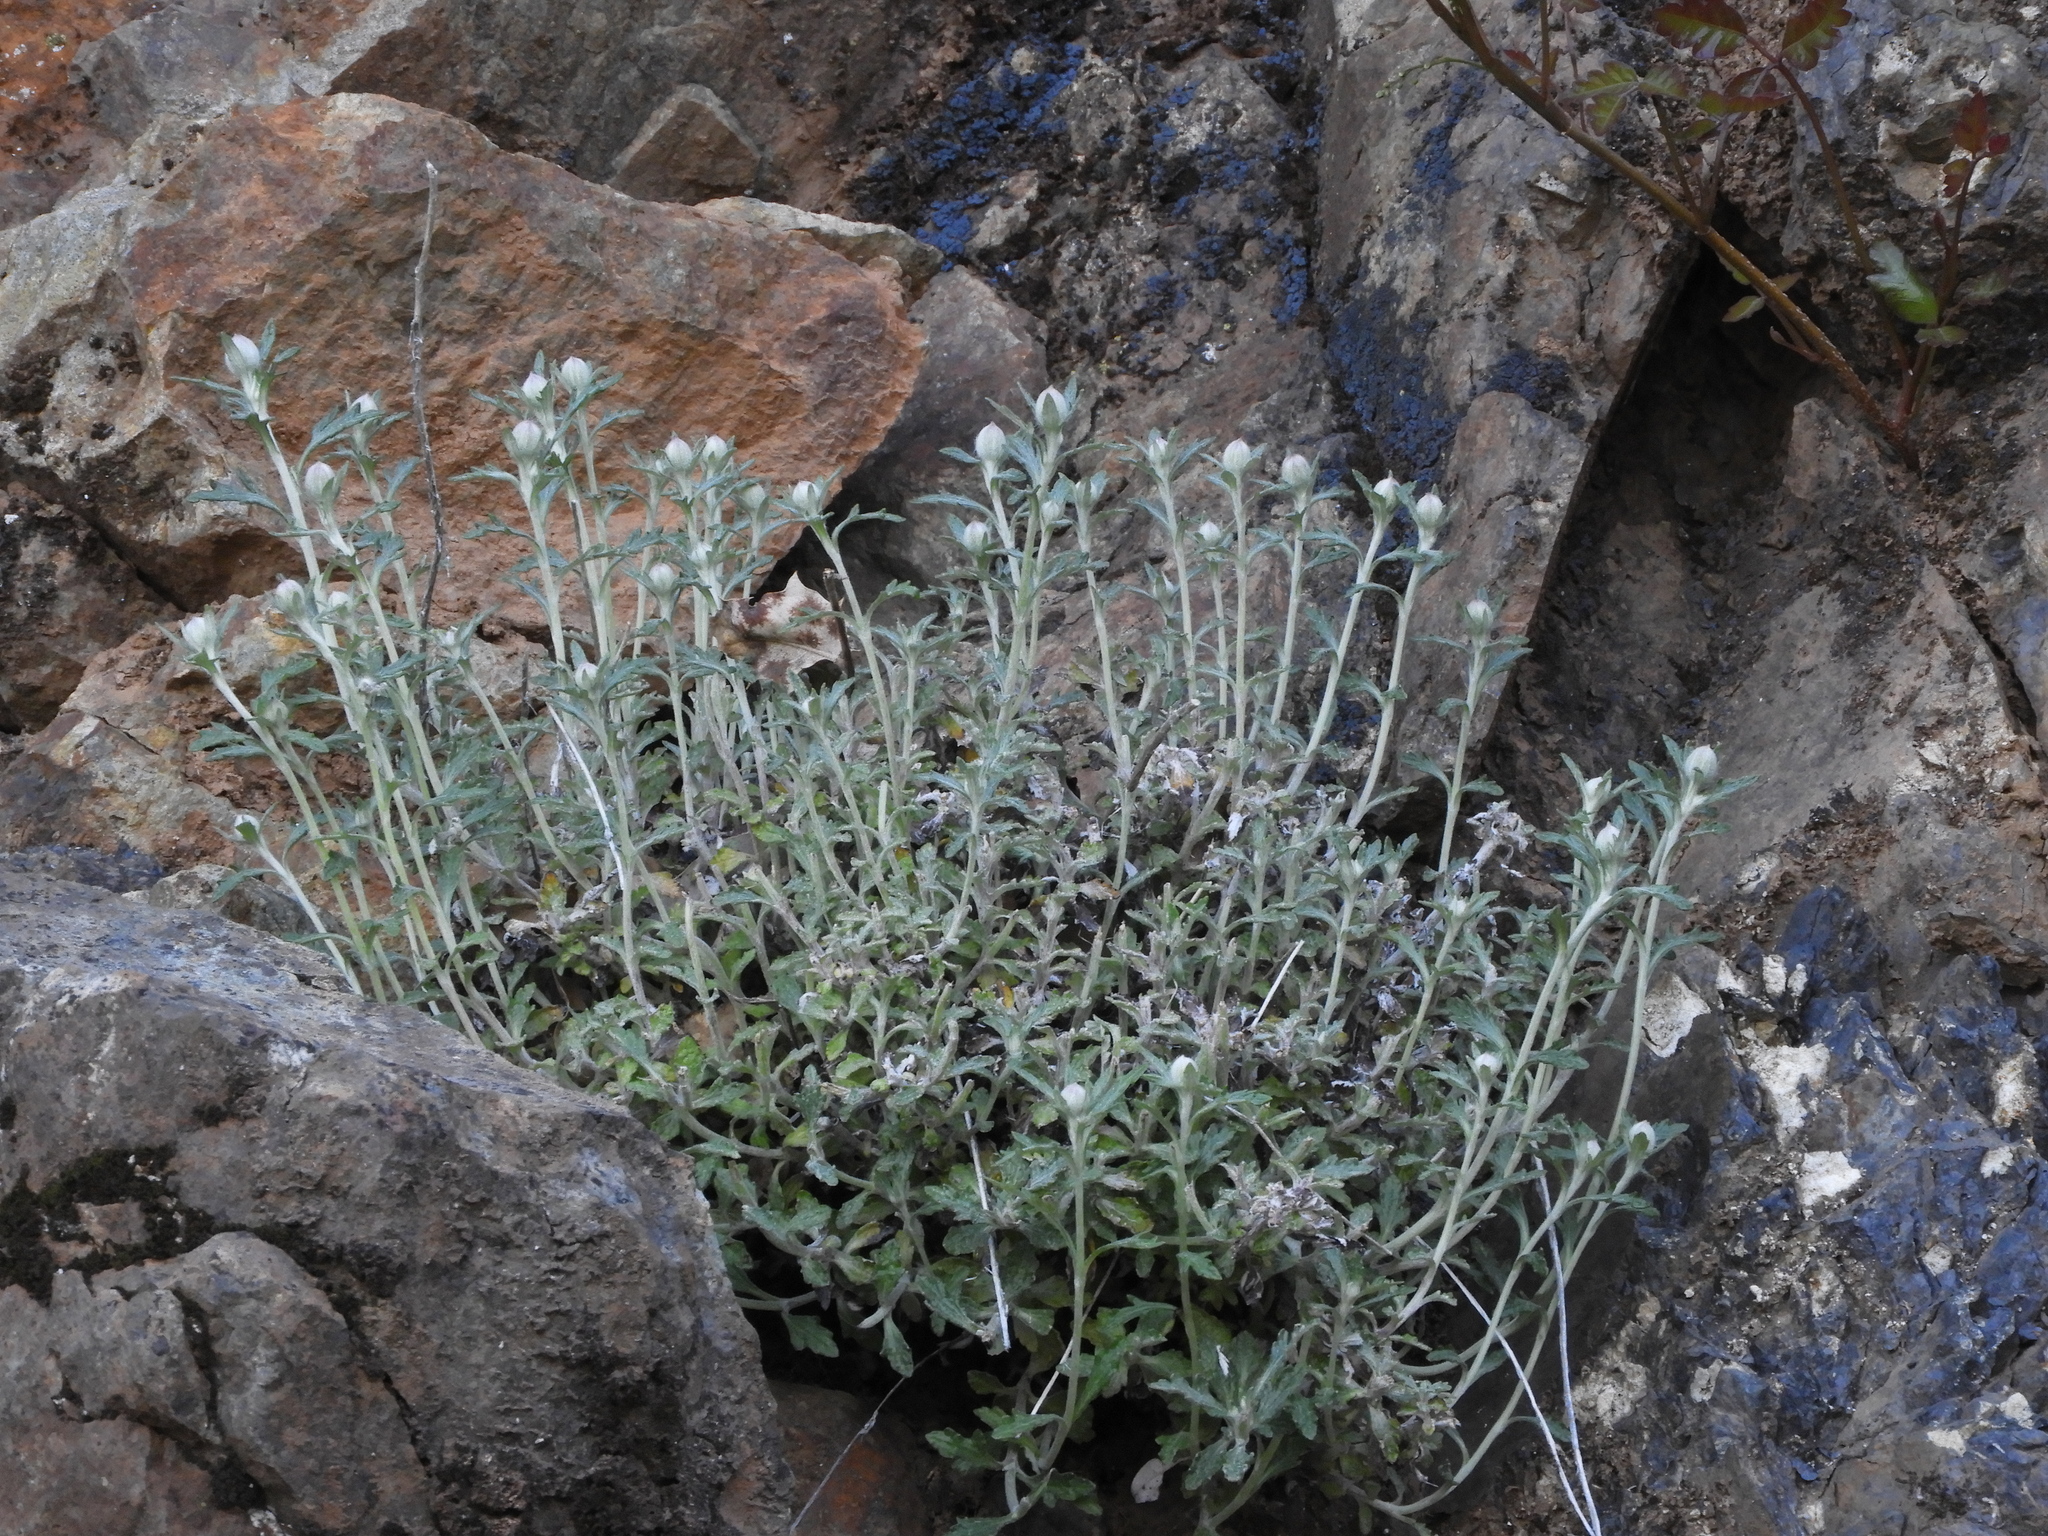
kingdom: Plantae
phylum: Tracheophyta
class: Magnoliopsida
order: Asterales
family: Asteraceae
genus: Eriophyllum
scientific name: Eriophyllum lanatum
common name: Common woolly-sunflower
